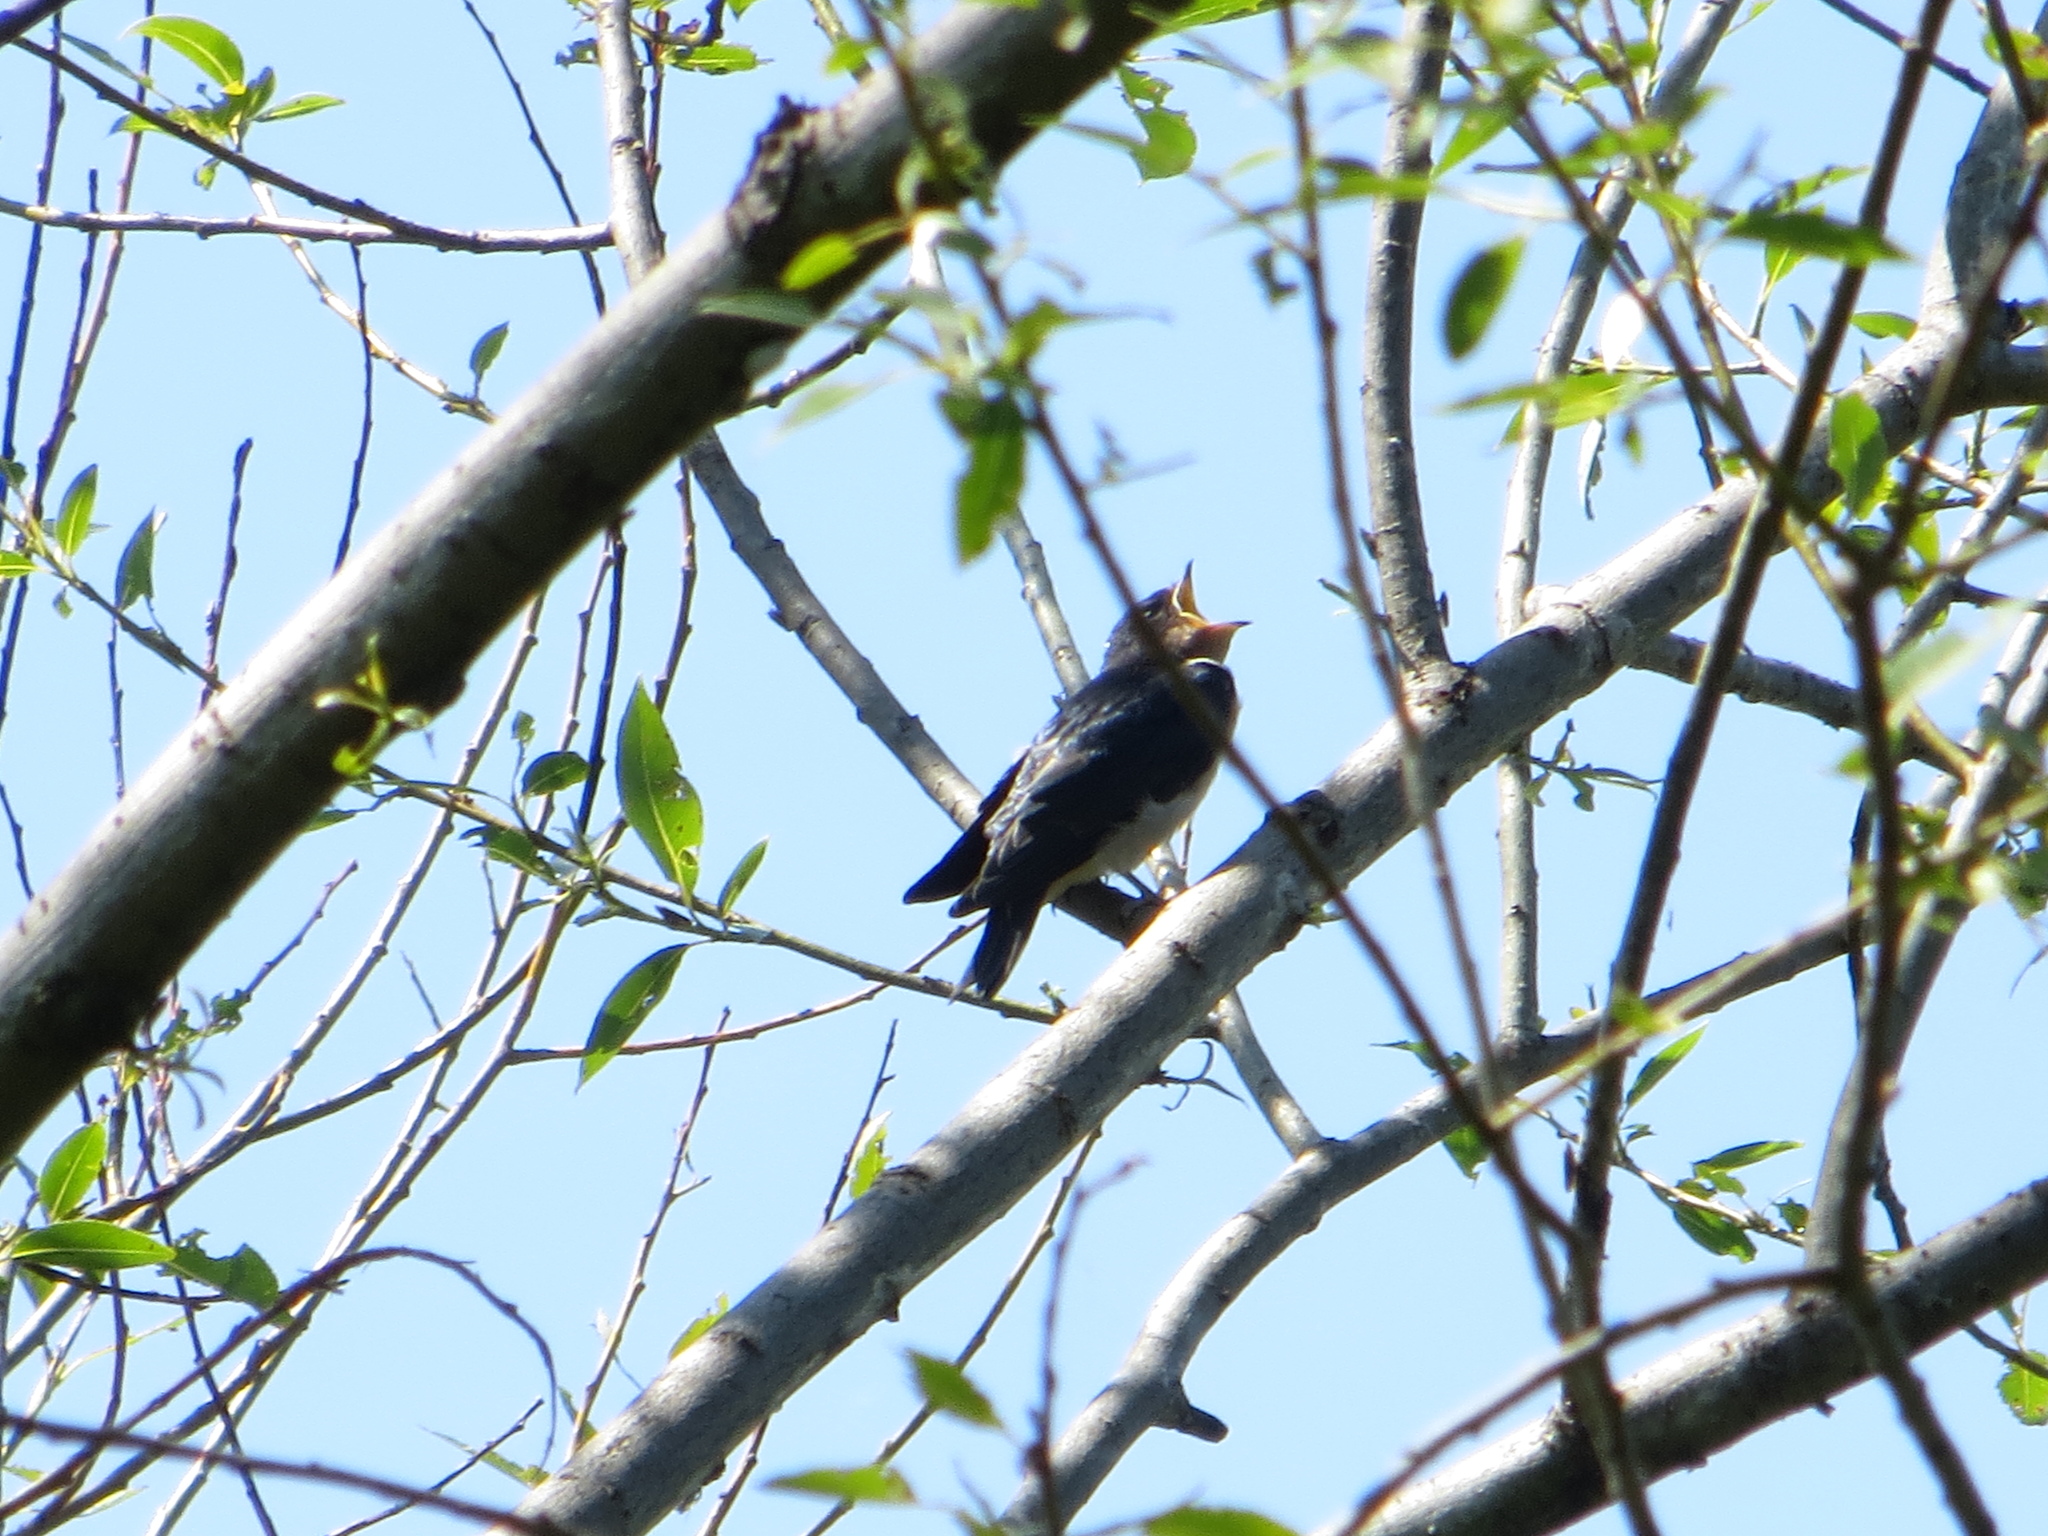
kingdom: Animalia
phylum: Chordata
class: Aves
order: Passeriformes
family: Hirundinidae
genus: Hirundo
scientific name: Hirundo rustica
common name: Barn swallow
